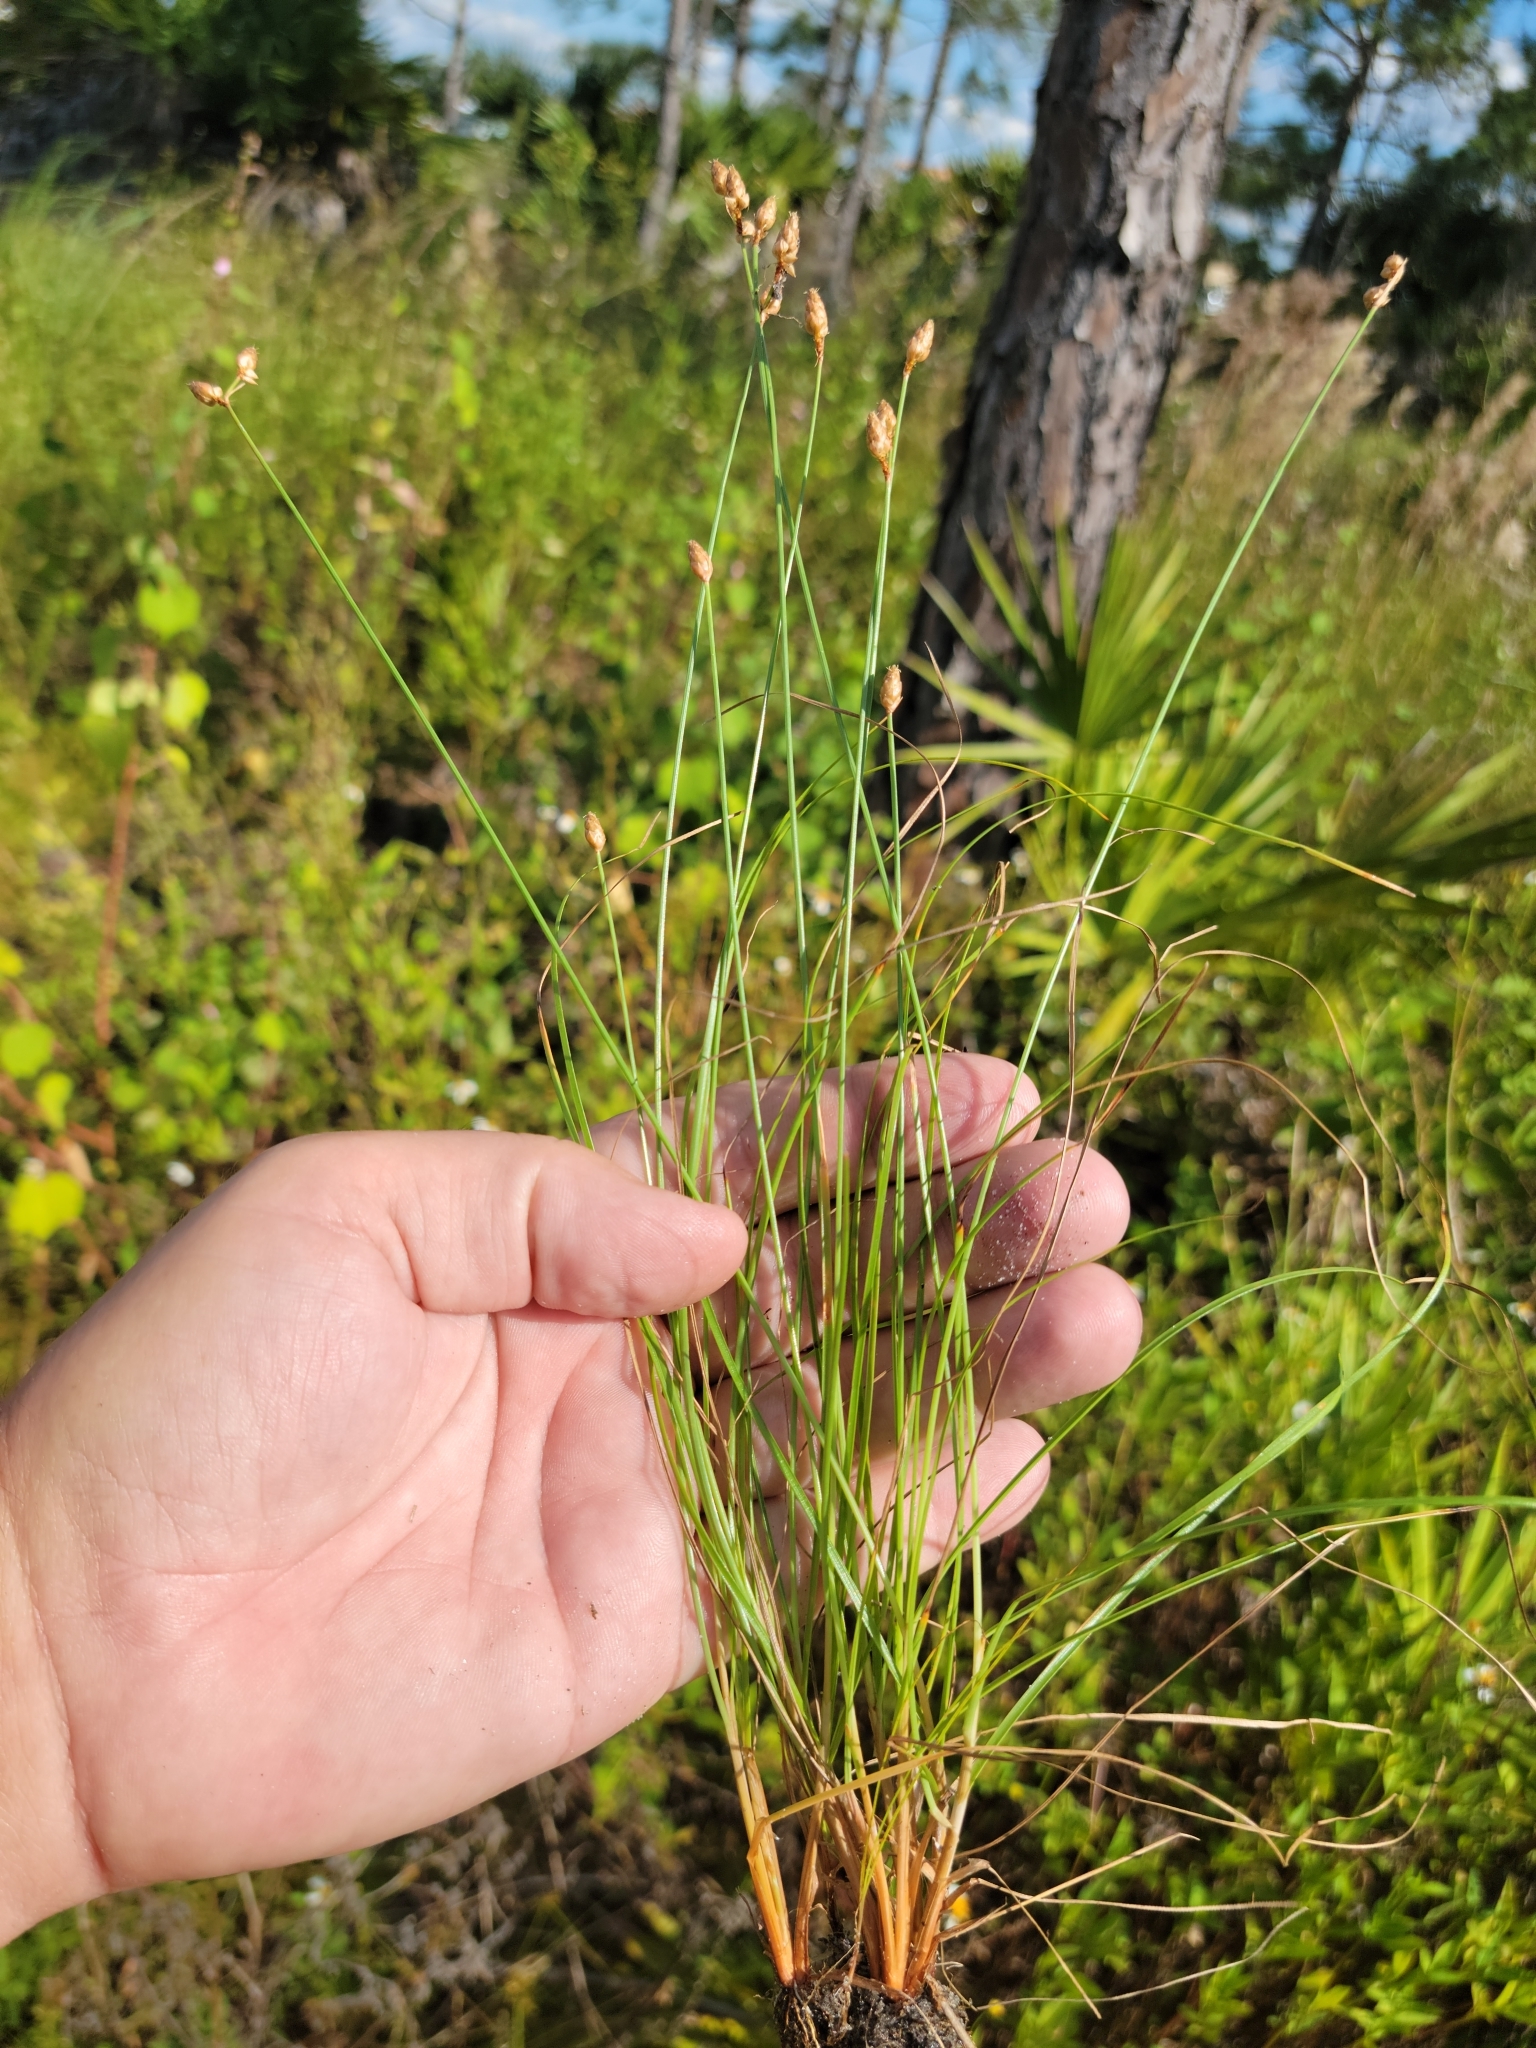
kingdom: Plantae
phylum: Tracheophyta
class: Liliopsida
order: Poales
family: Cyperaceae
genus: Fimbristylis
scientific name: Fimbristylis schoenoides
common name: Ditch fimbry
